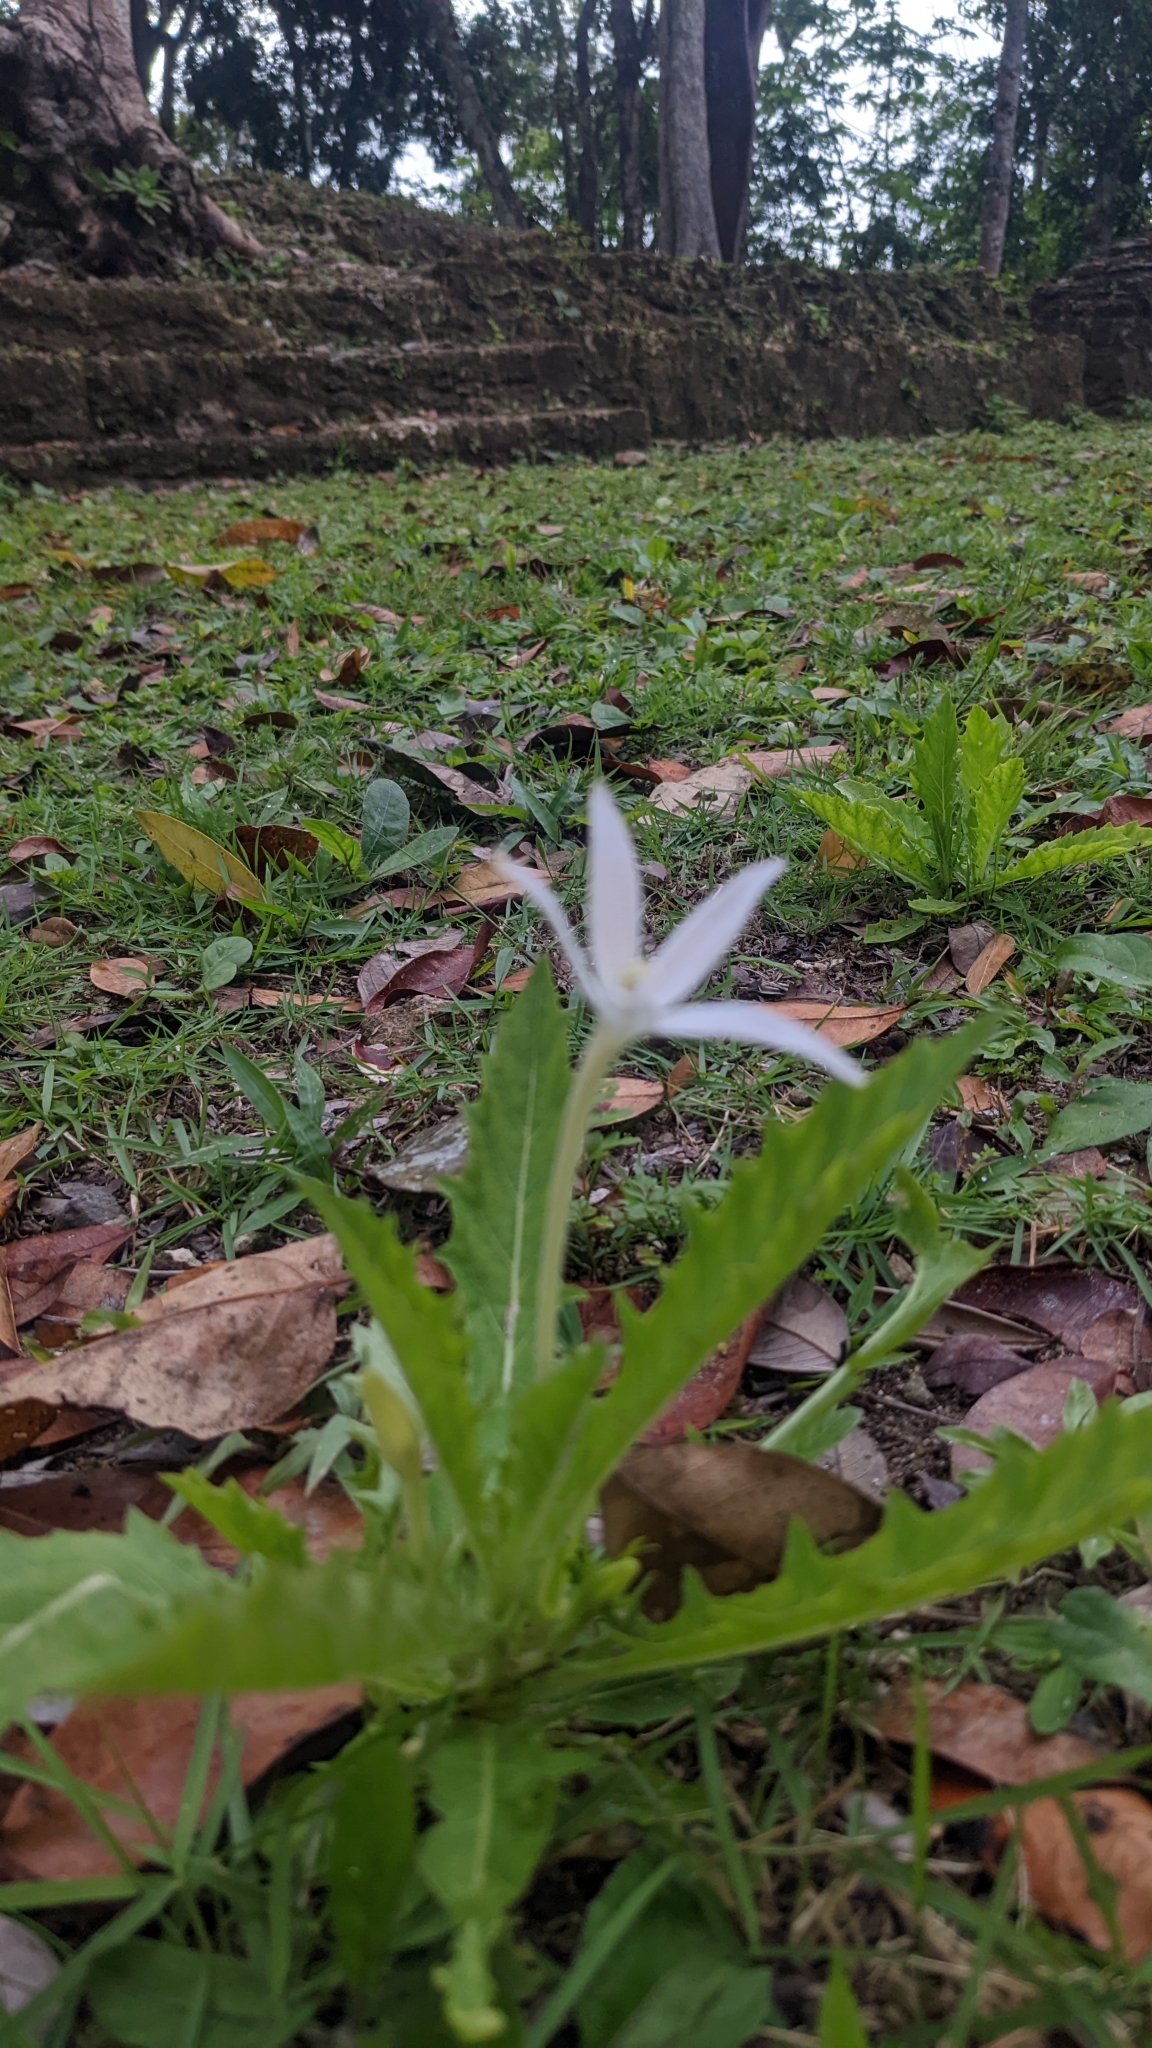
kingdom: Plantae
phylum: Tracheophyta
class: Magnoliopsida
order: Asterales
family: Campanulaceae
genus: Hippobroma
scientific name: Hippobroma longiflora
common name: Madamfate
